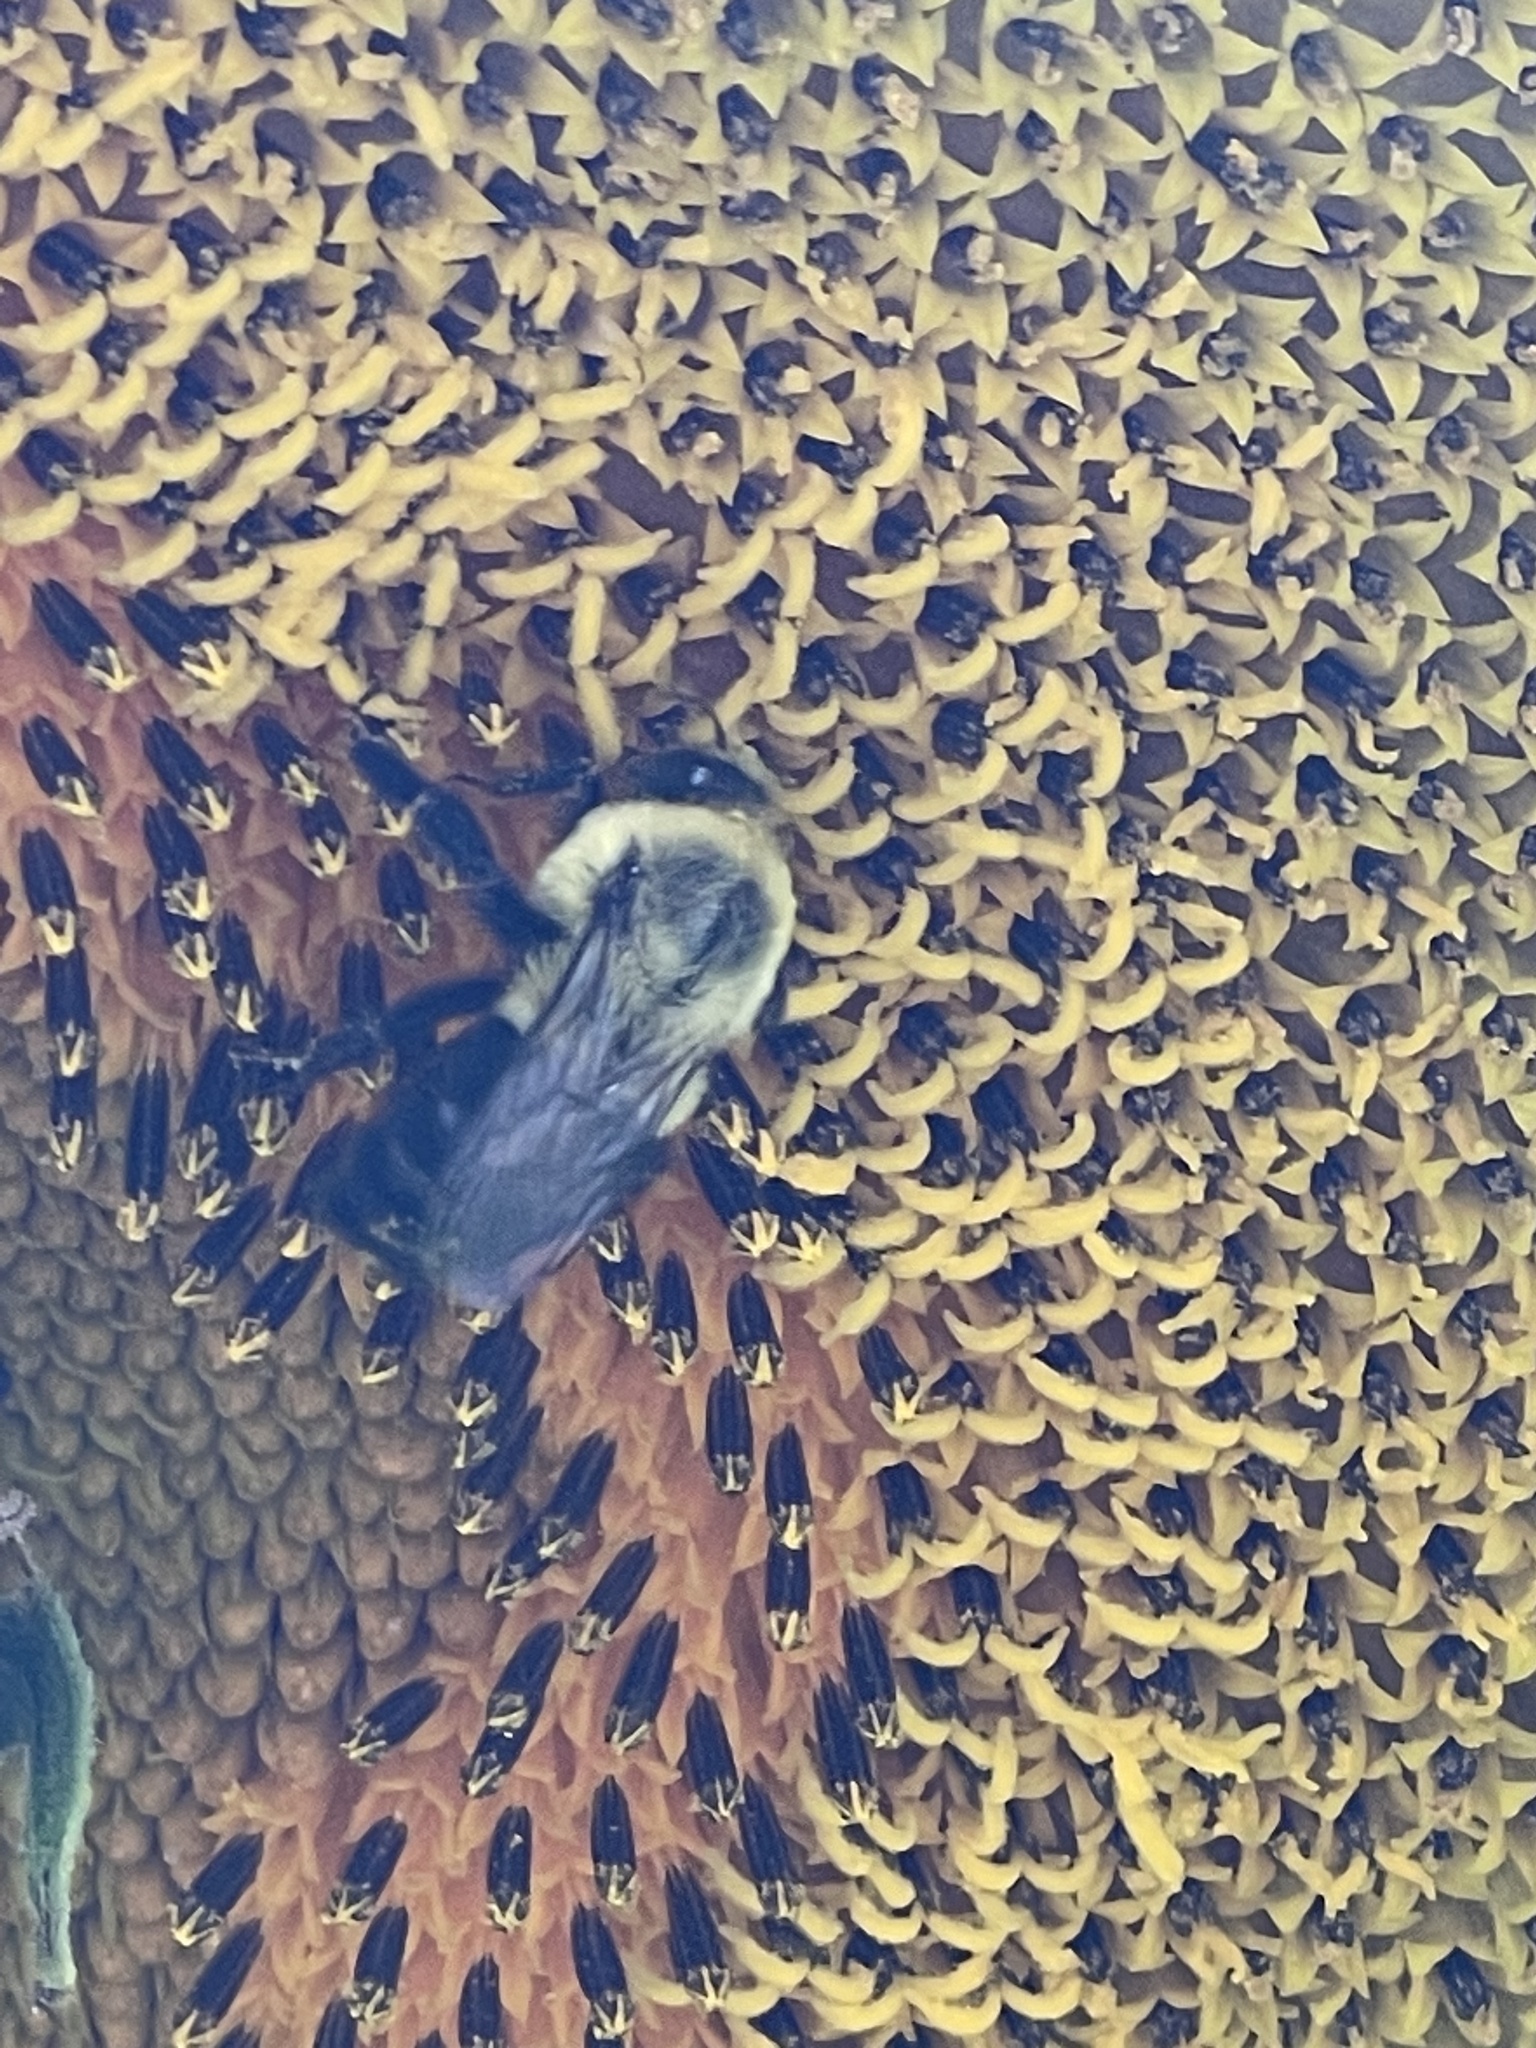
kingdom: Animalia
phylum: Arthropoda
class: Insecta
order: Hymenoptera
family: Apidae
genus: Bombus
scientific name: Bombus impatiens
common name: Common eastern bumble bee
